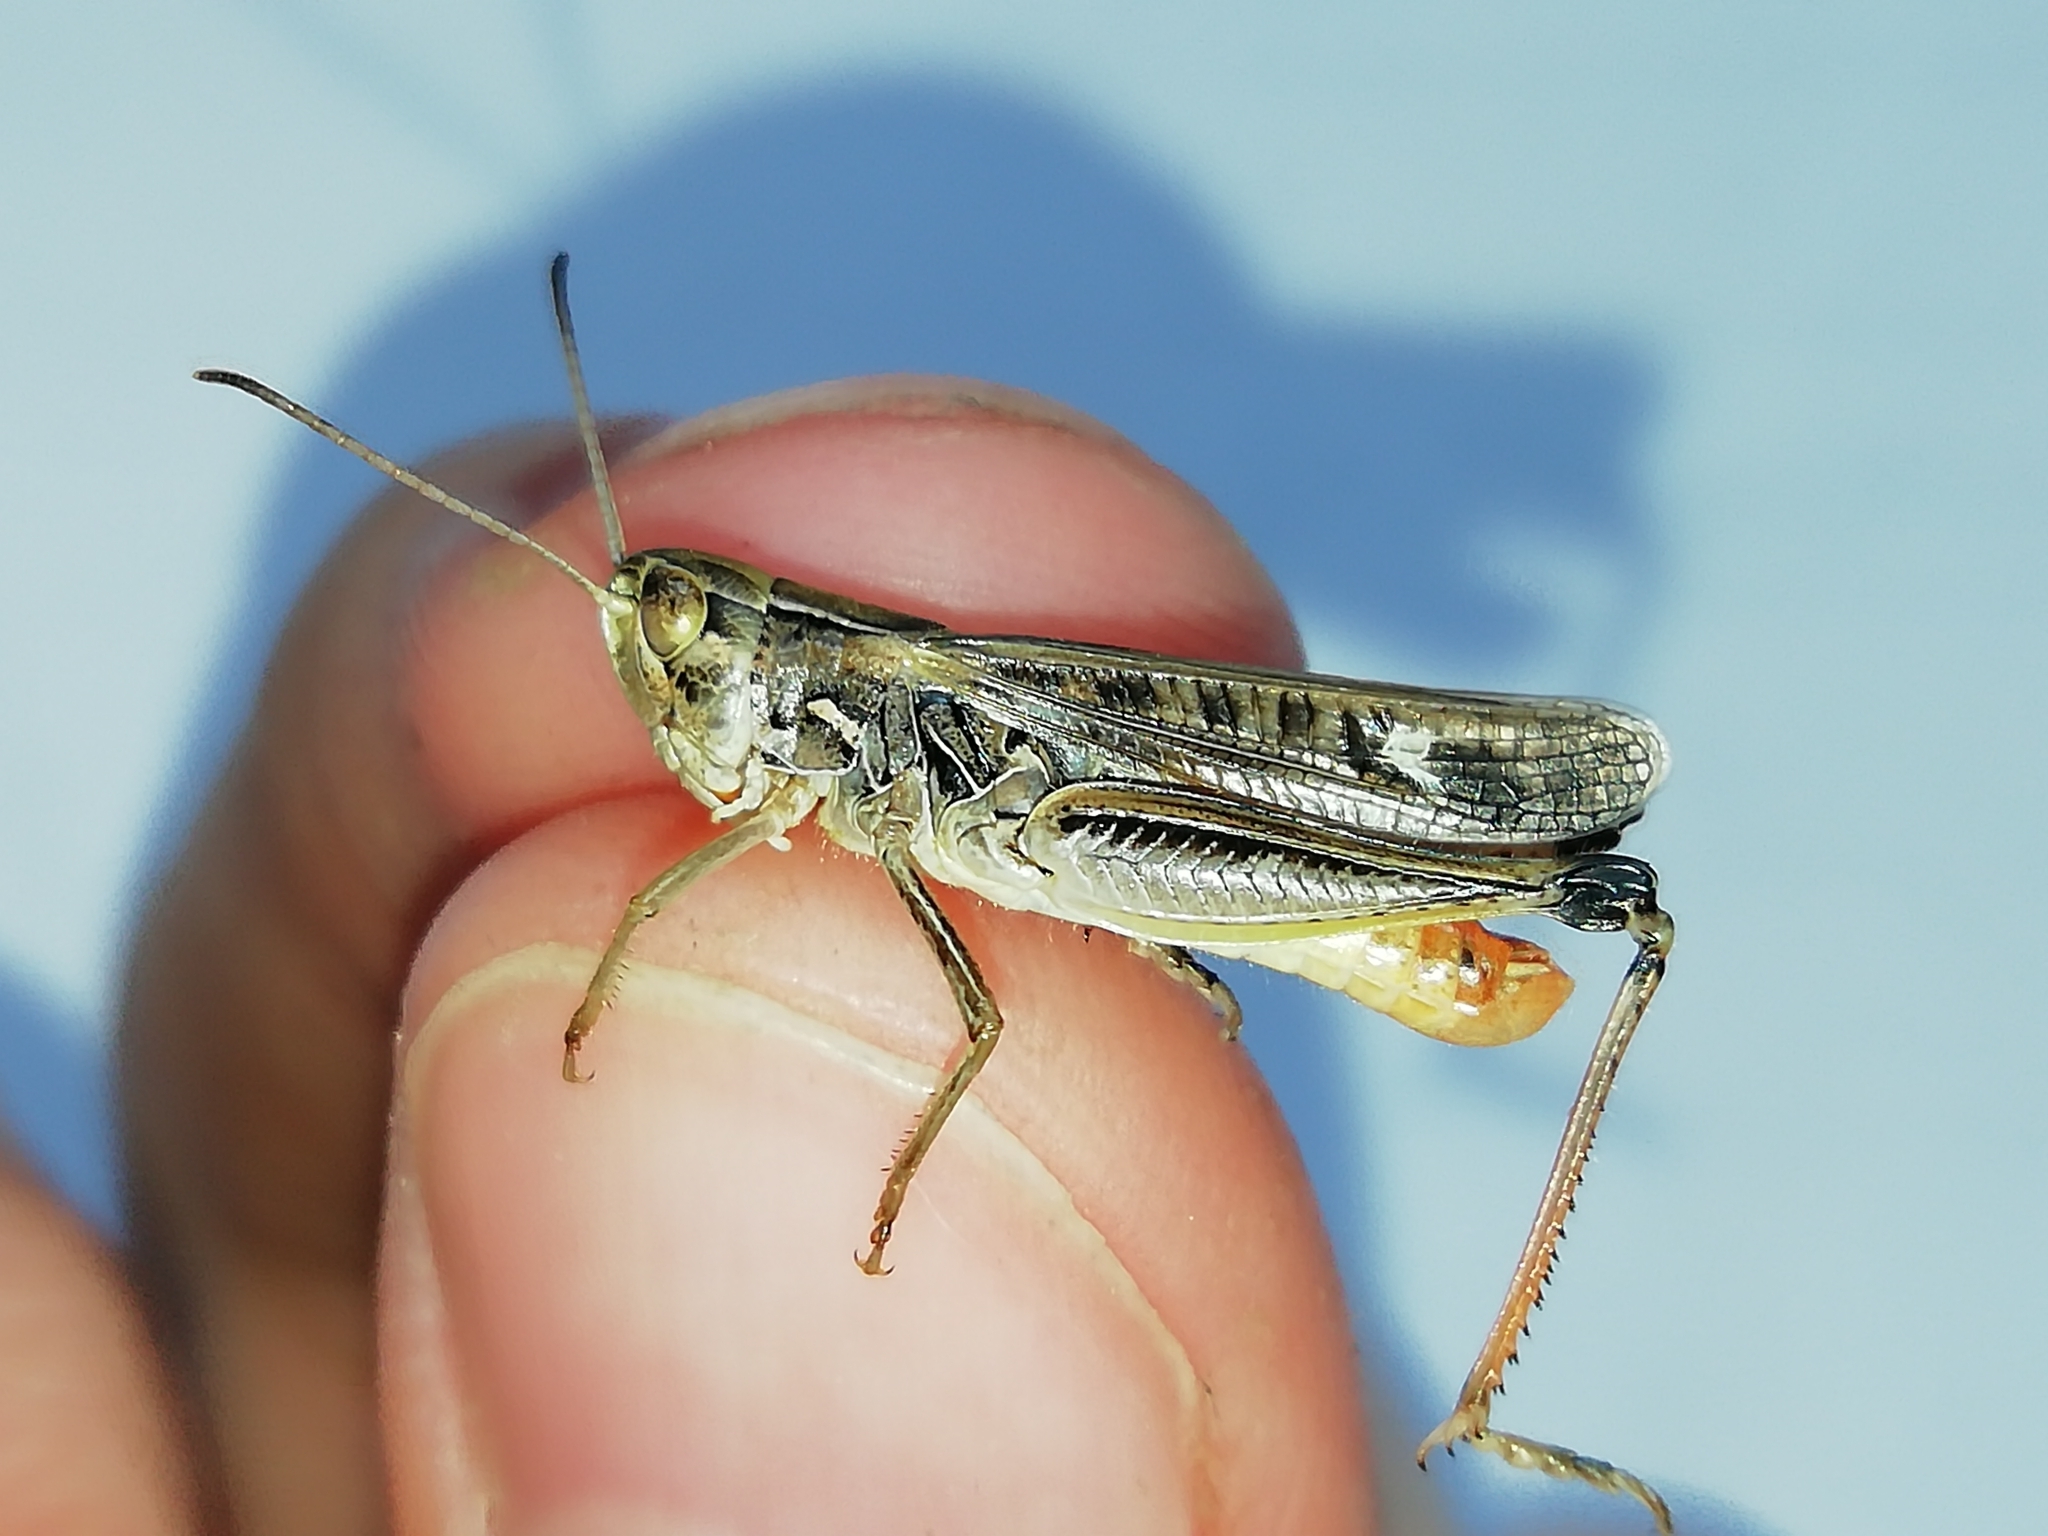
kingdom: Animalia
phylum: Arthropoda
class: Insecta
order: Orthoptera
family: Acrididae
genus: Stenobothrus
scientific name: Stenobothrus eurasius
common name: Eurasian toothed grasshopper
